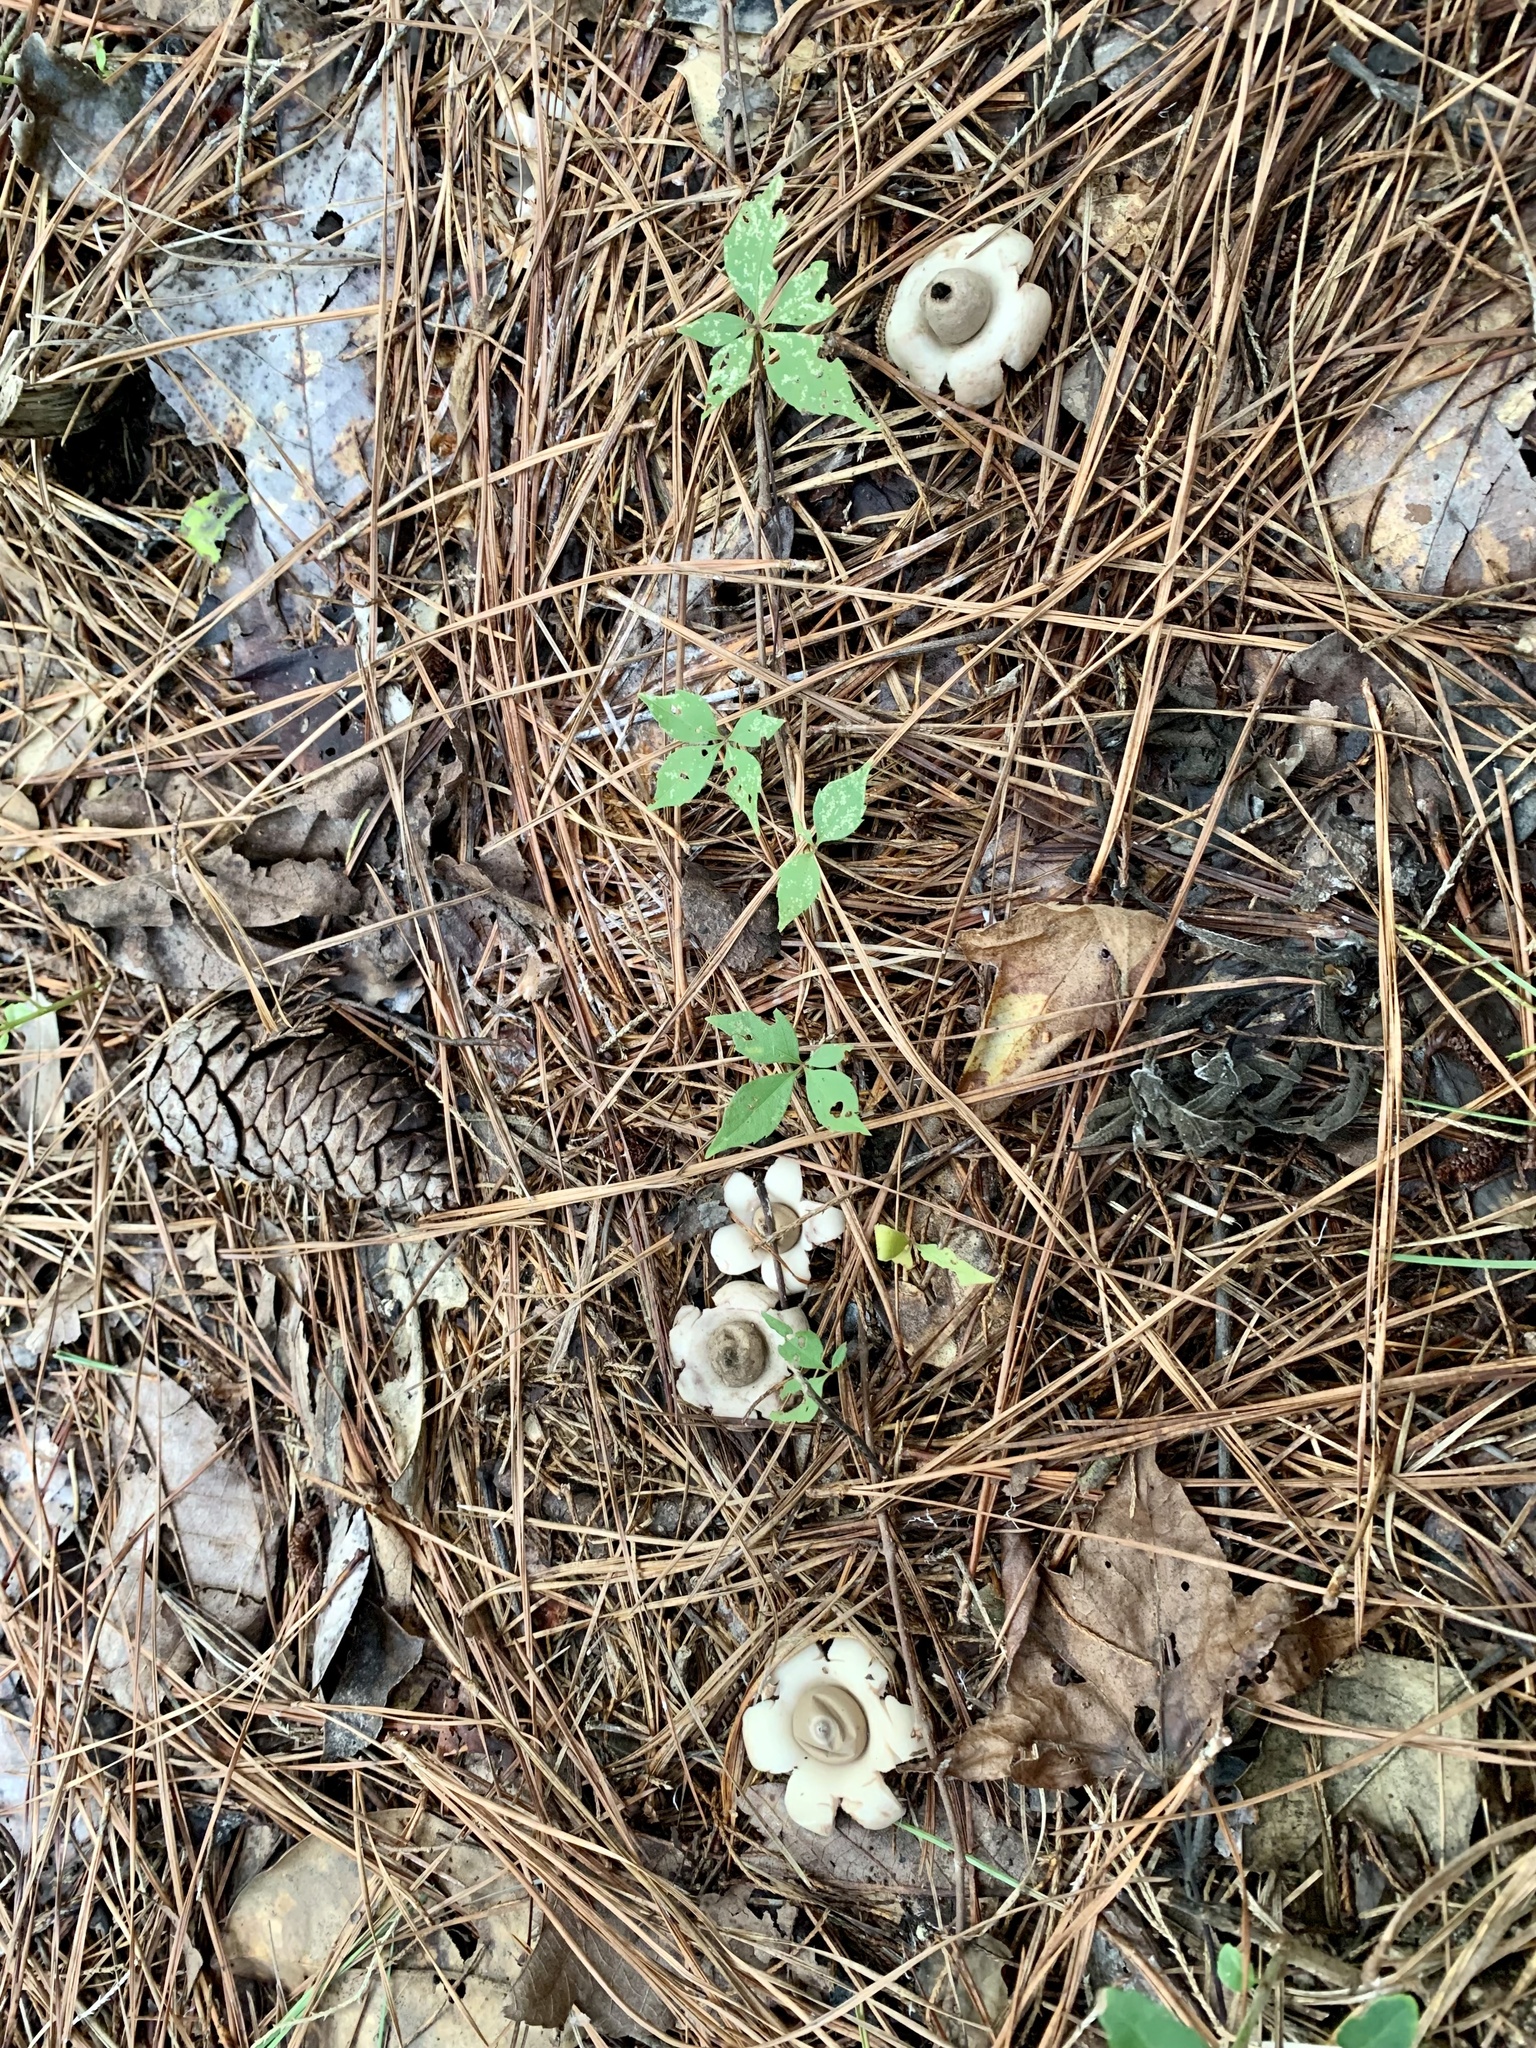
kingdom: Fungi
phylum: Basidiomycota
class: Agaricomycetes
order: Geastrales
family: Geastraceae
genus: Geastrum
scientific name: Geastrum saccatum
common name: Rounded earthstar
